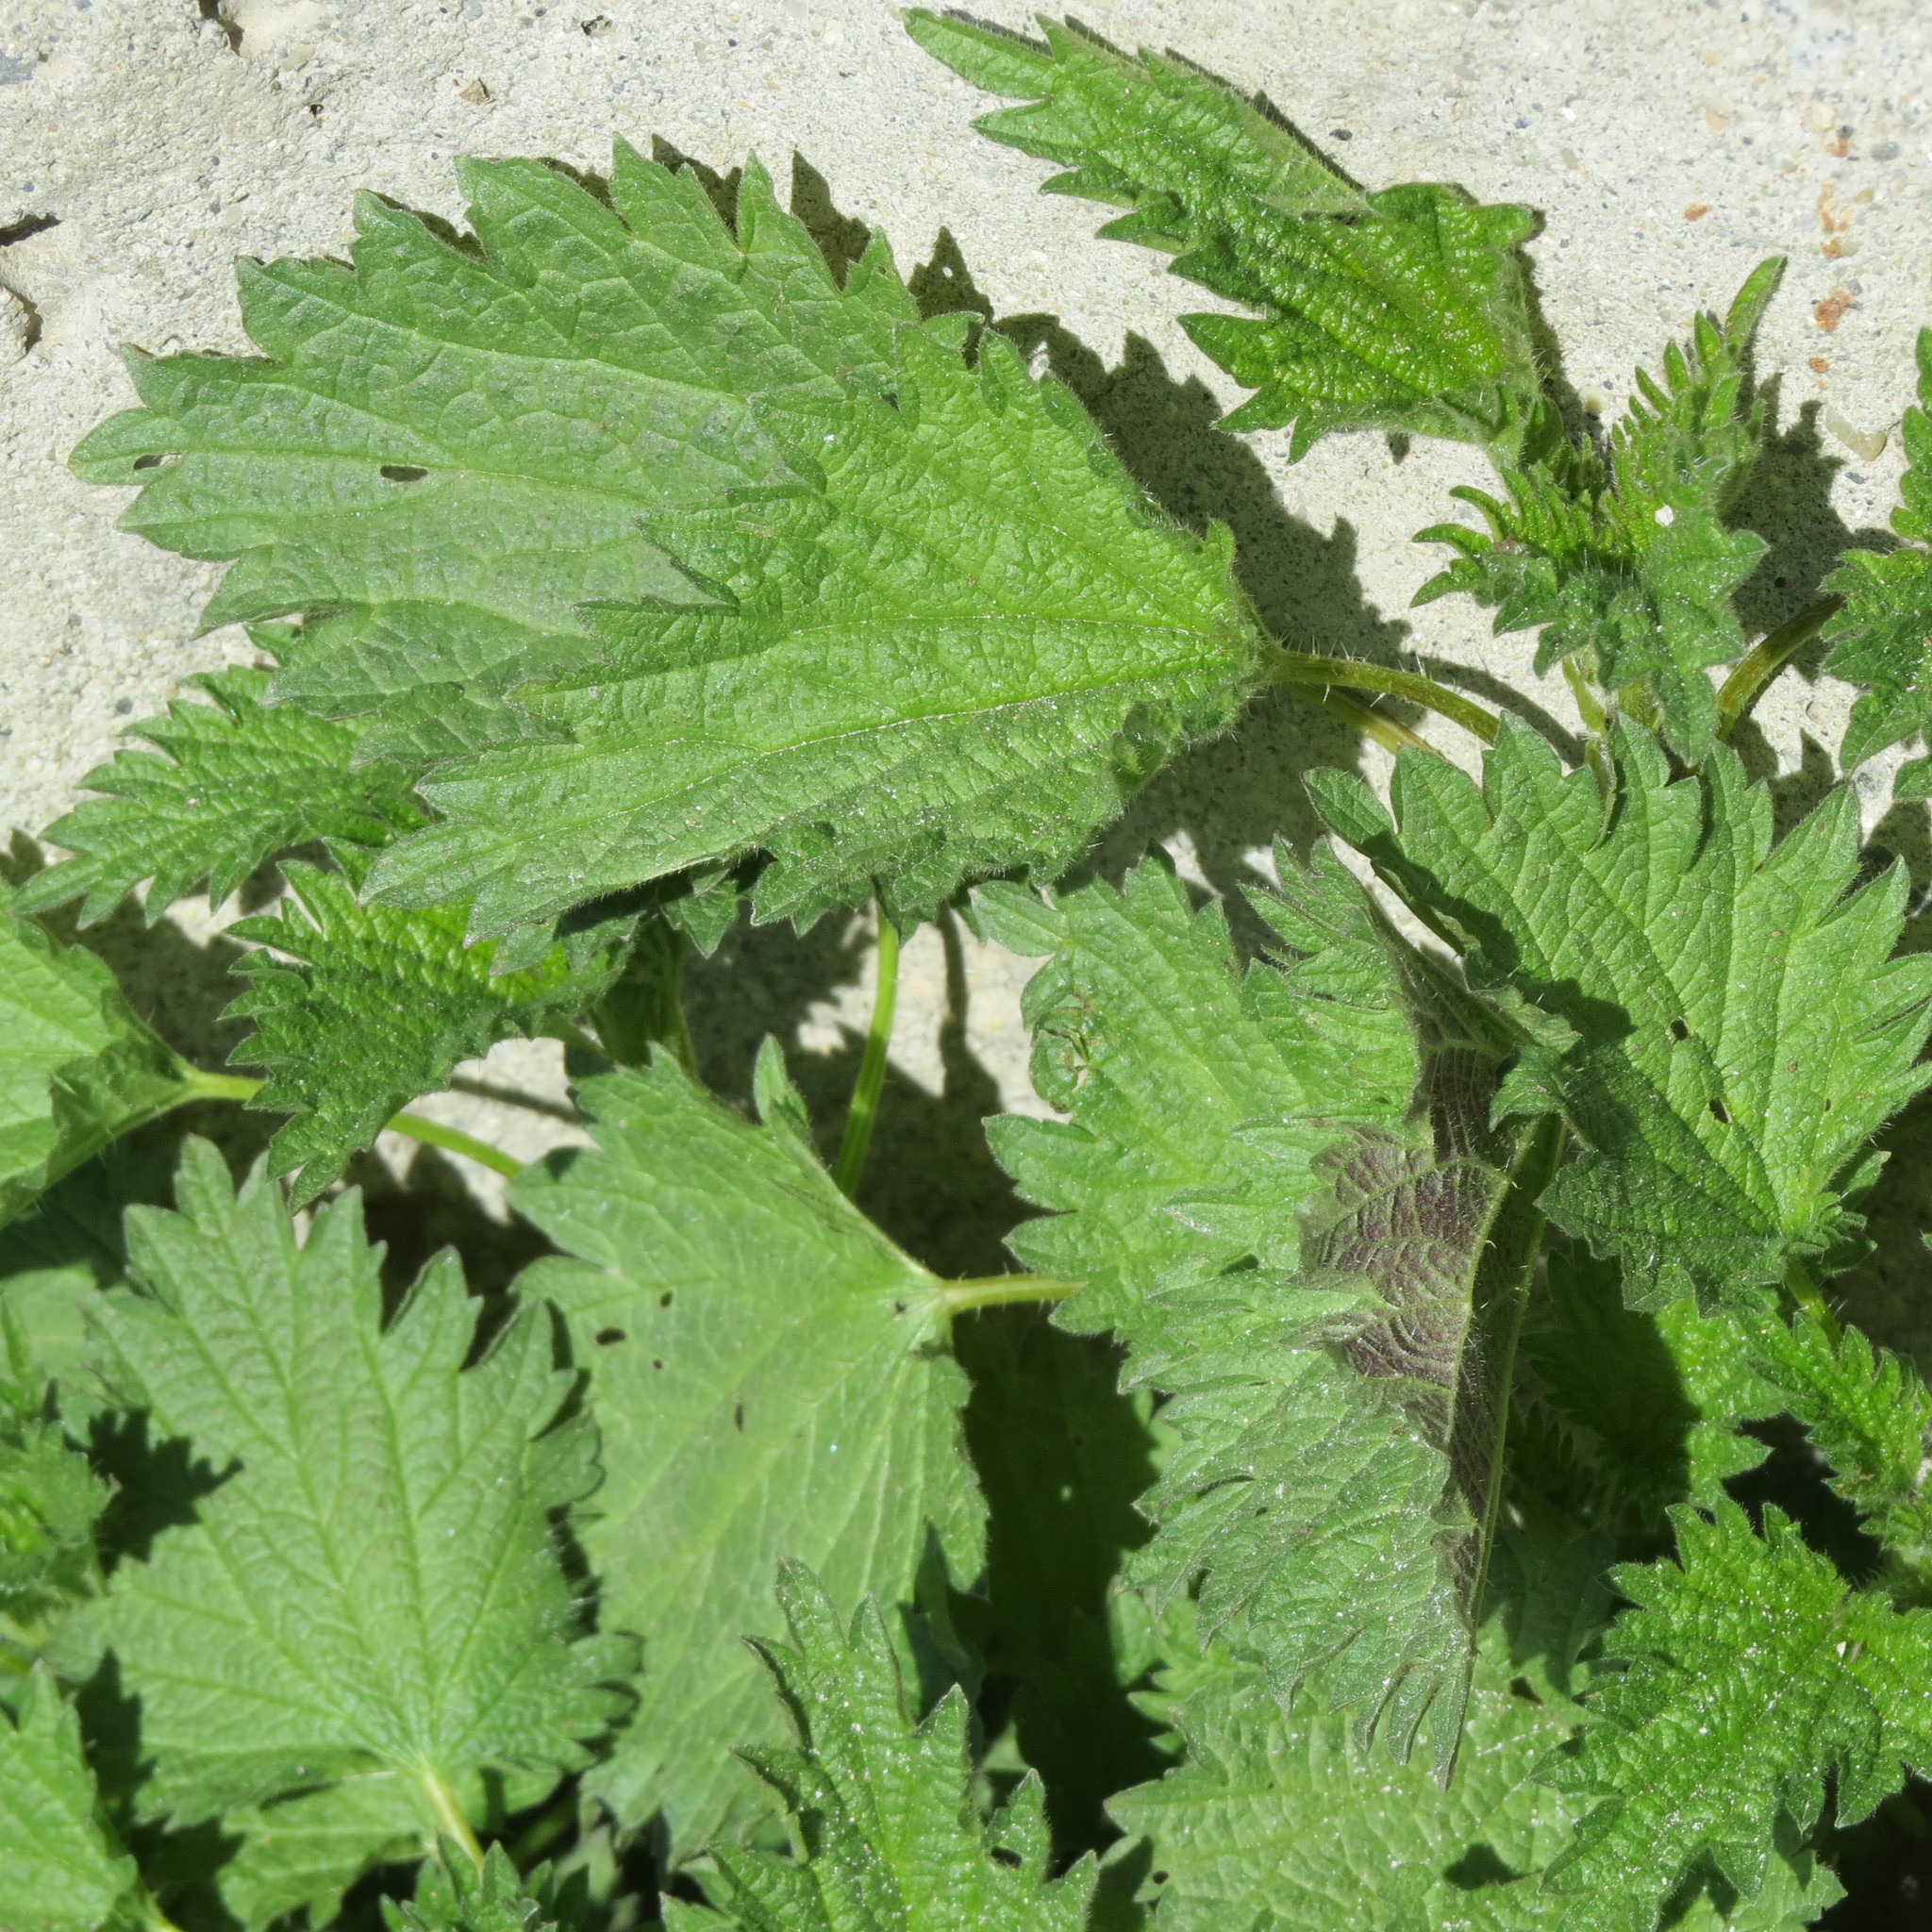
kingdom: Plantae
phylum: Tracheophyta
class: Magnoliopsida
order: Rosales
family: Urticaceae
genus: Urtica
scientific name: Urtica dioica
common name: Common nettle
